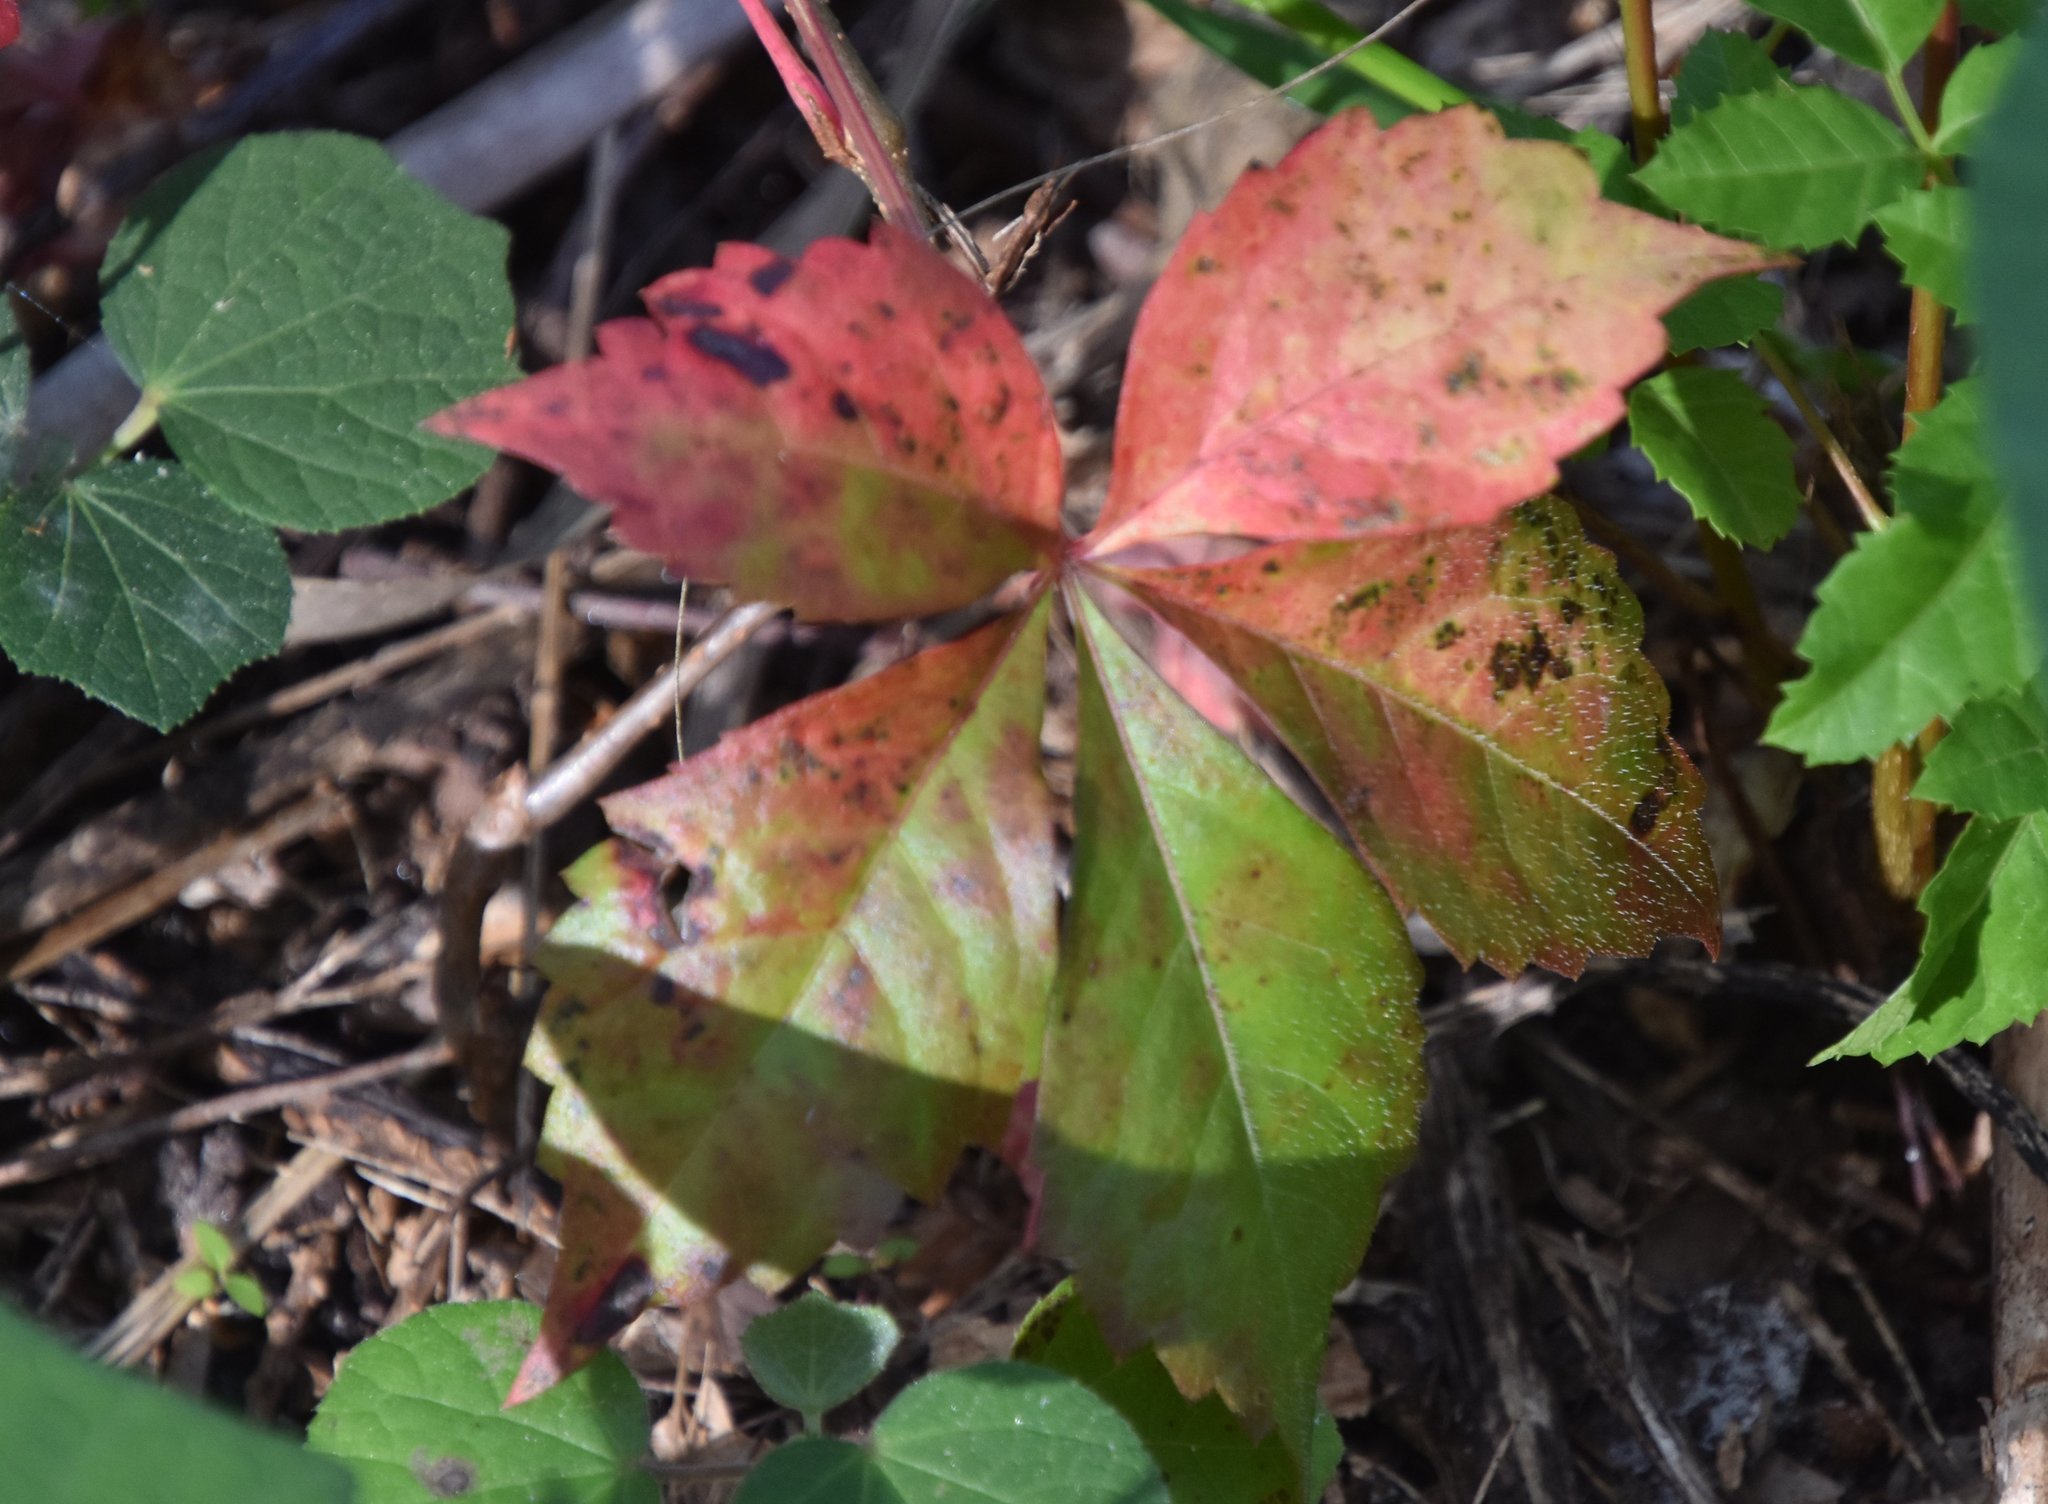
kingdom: Plantae
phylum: Tracheophyta
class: Magnoliopsida
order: Vitales
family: Vitaceae
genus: Parthenocissus
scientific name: Parthenocissus quinquefolia
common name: Virginia-creeper
